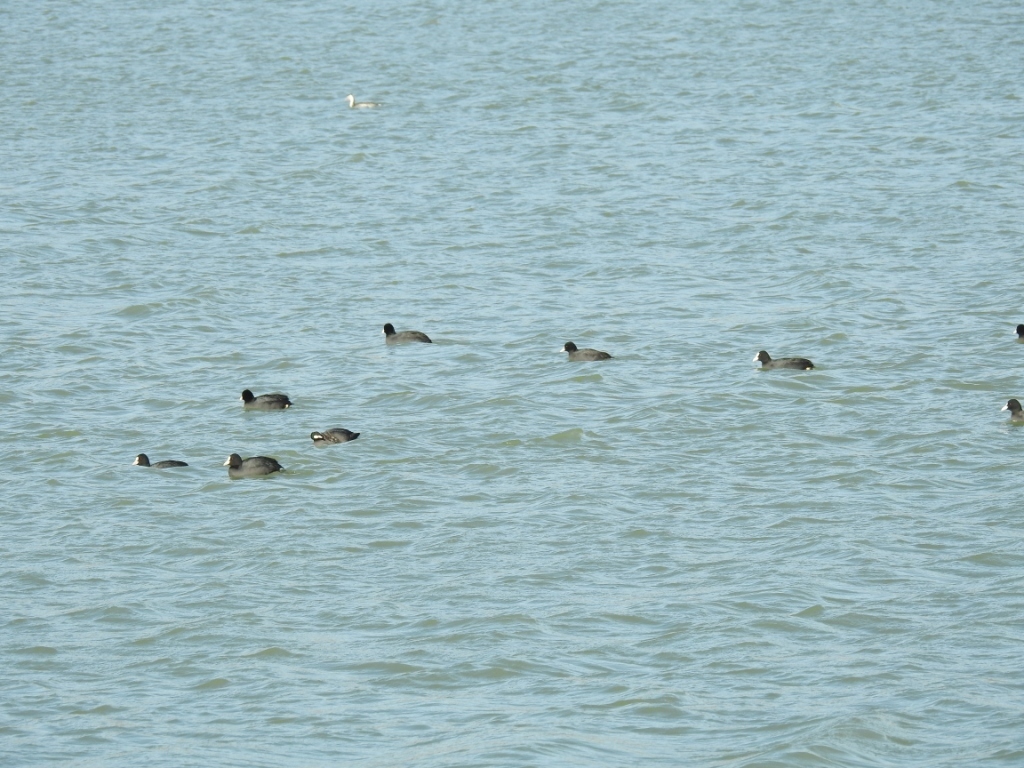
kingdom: Animalia
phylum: Chordata
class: Aves
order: Gruiformes
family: Rallidae
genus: Fulica
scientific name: Fulica atra
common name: Eurasian coot
